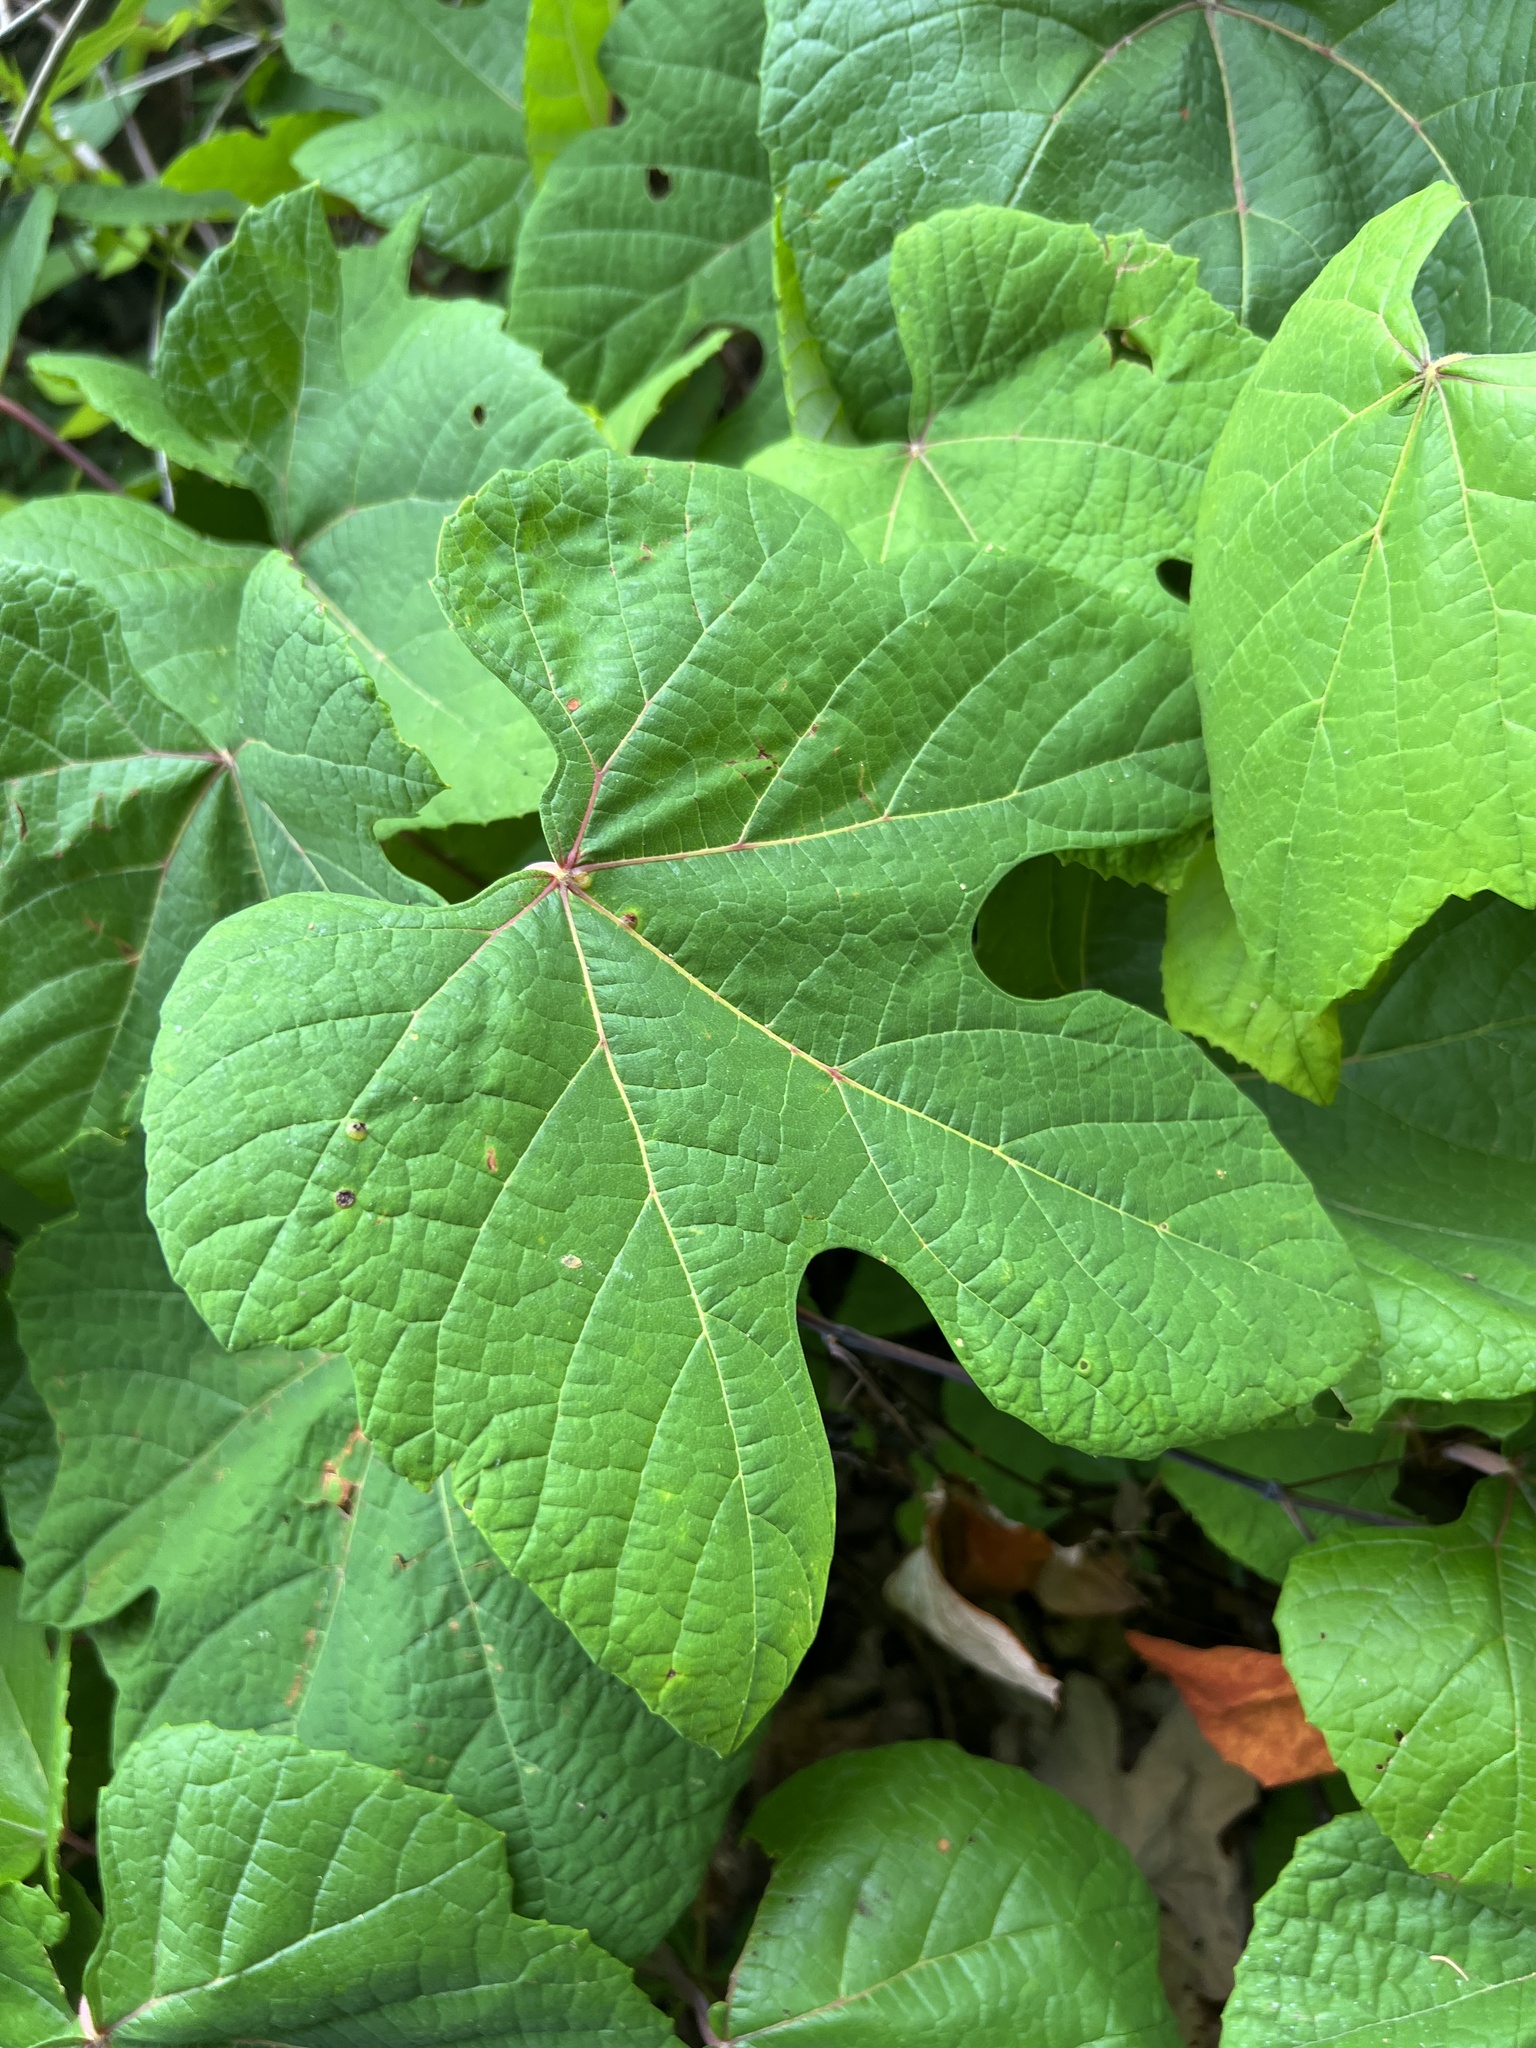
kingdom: Plantae
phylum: Tracheophyta
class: Magnoliopsida
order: Vitales
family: Vitaceae
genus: Vitis
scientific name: Vitis aestivalis
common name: Pigeon grape
